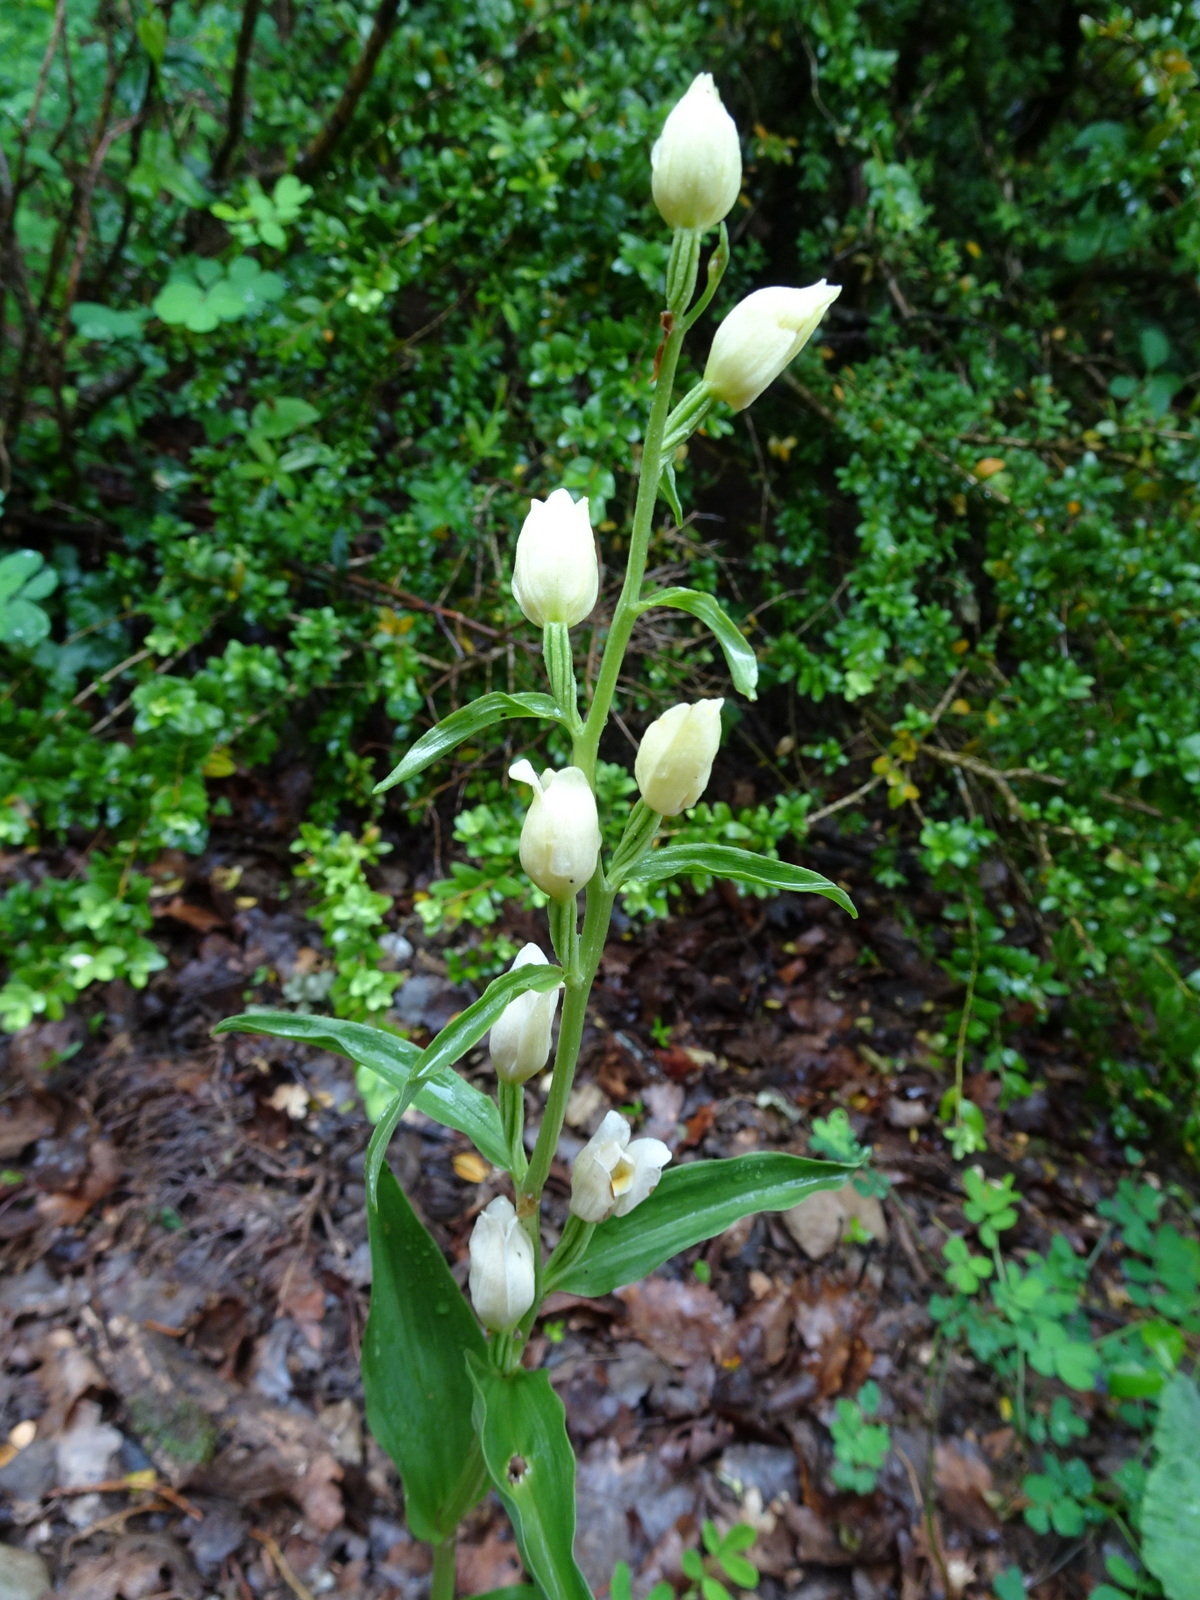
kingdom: Plantae
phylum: Tracheophyta
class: Liliopsida
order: Asparagales
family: Orchidaceae
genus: Cephalanthera
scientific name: Cephalanthera damasonium
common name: White helleborine
